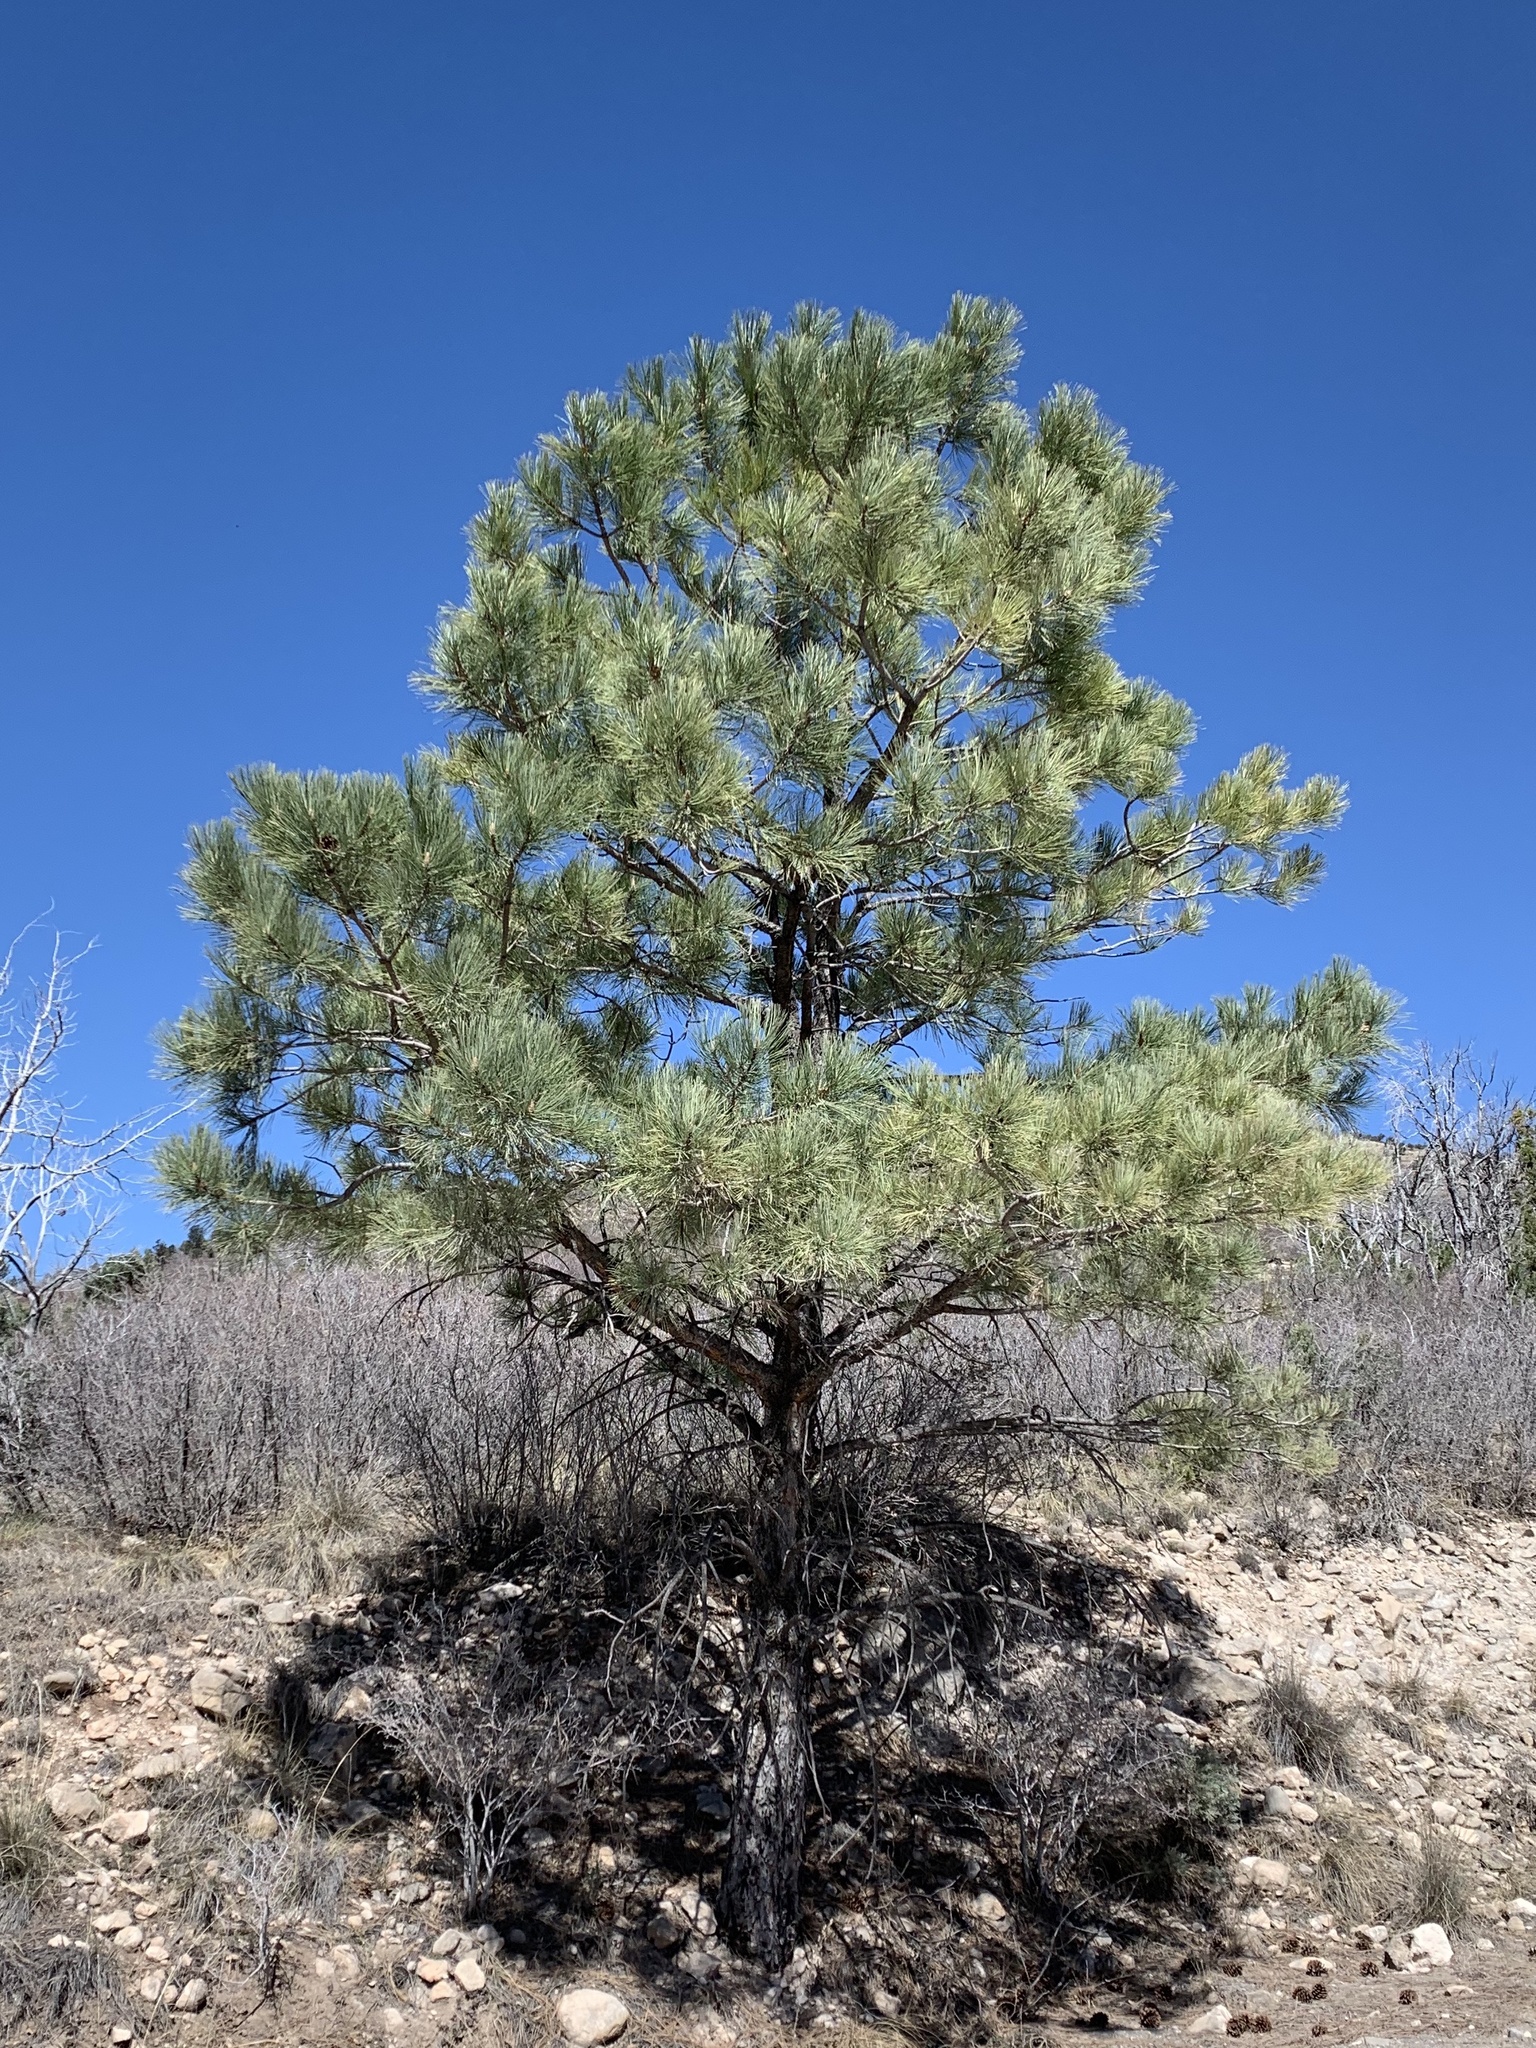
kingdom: Plantae
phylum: Tracheophyta
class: Pinopsida
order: Pinales
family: Pinaceae
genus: Pinus
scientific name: Pinus ponderosa
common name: Western yellow-pine
